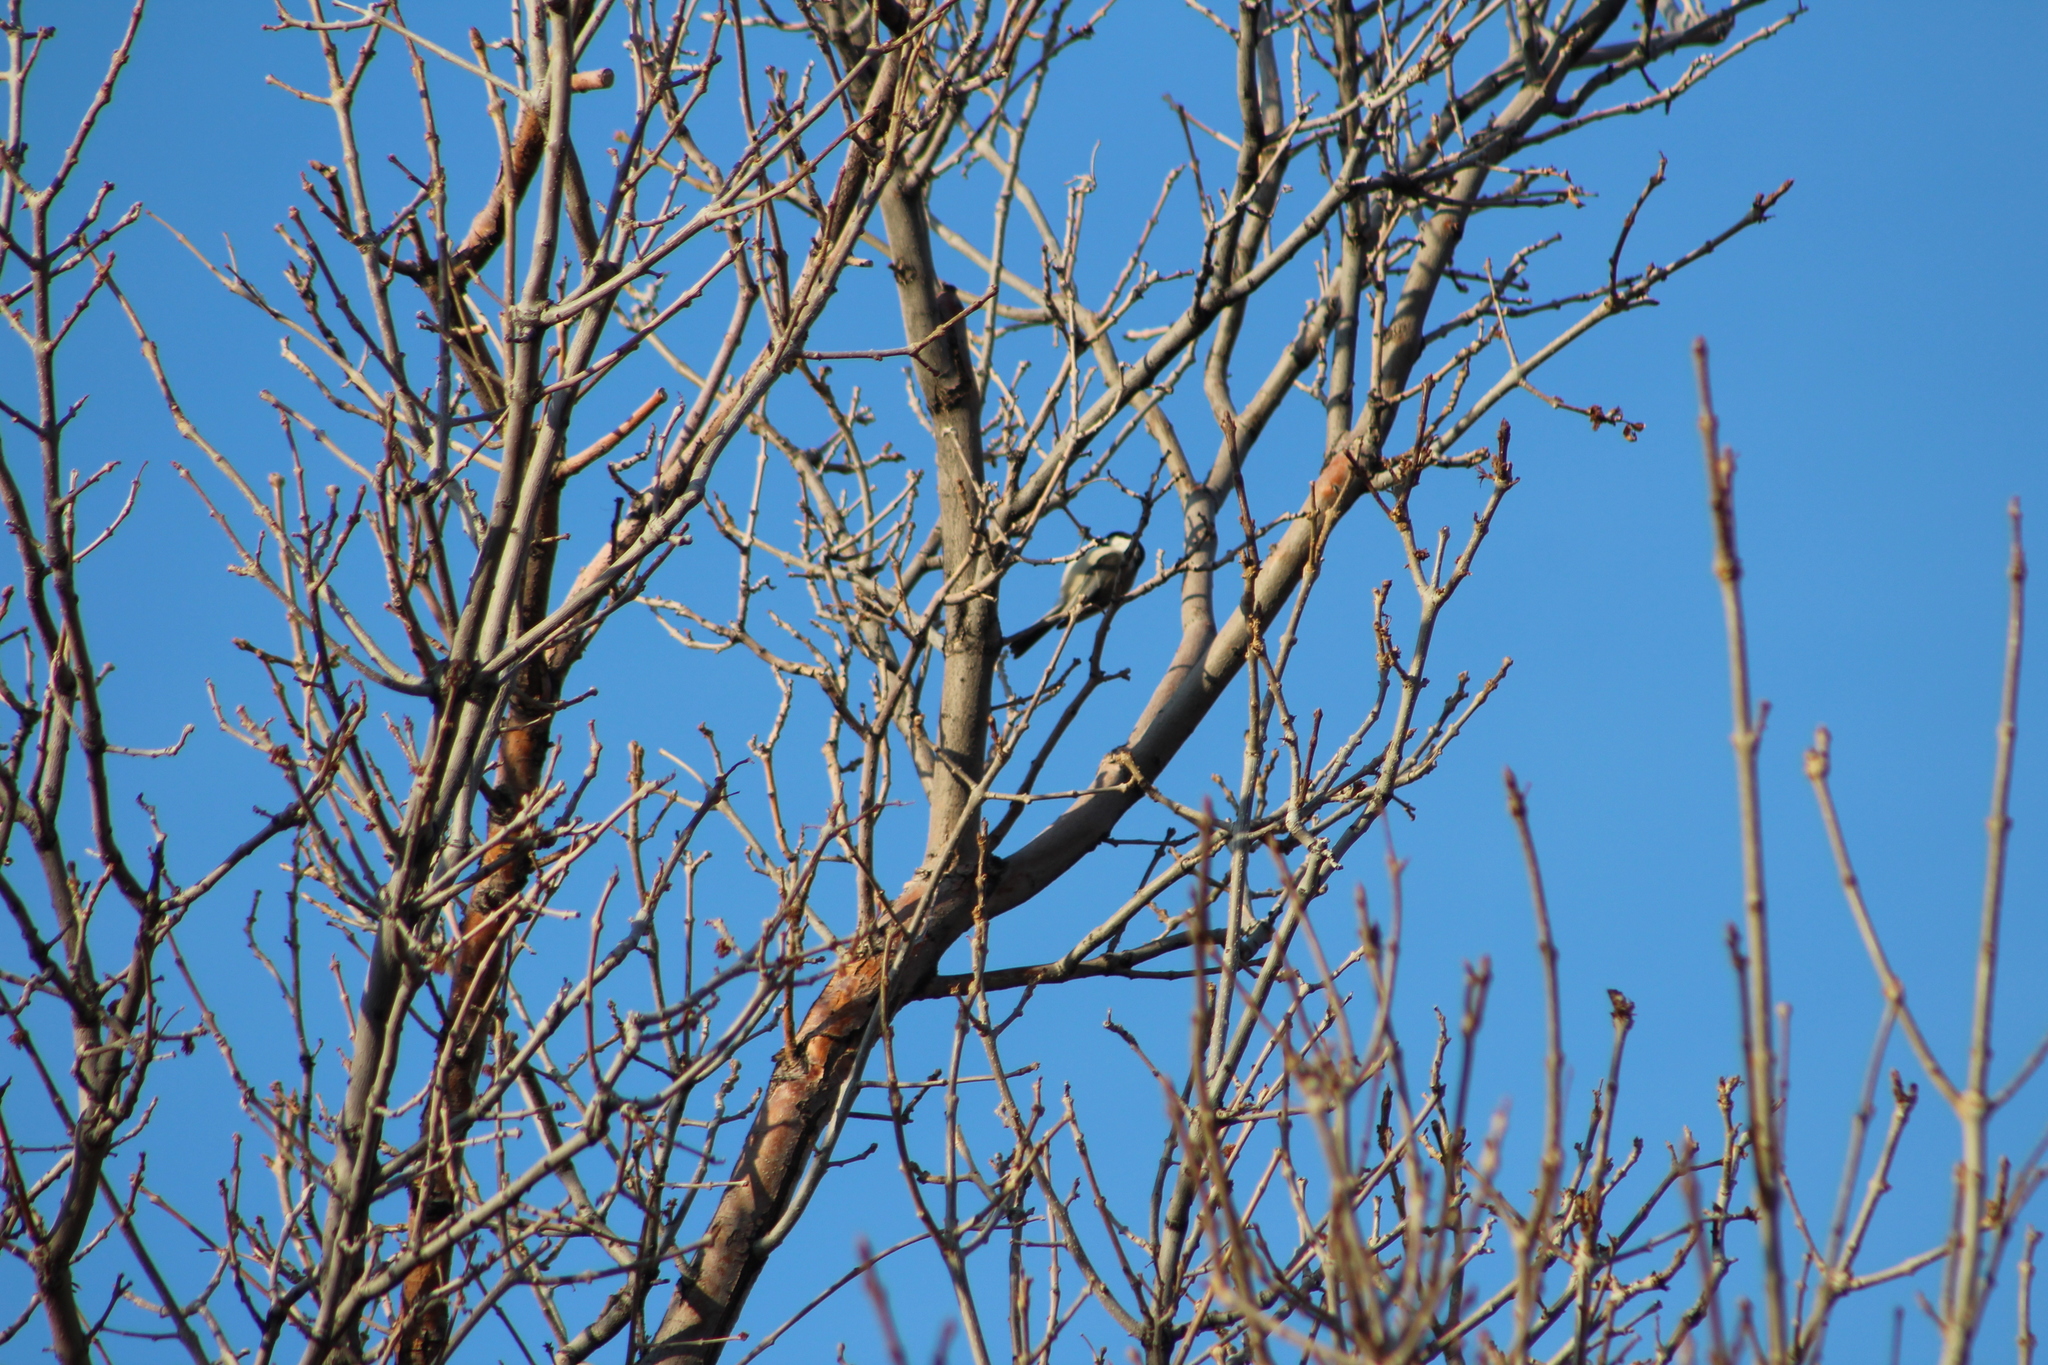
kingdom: Animalia
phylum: Chordata
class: Aves
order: Passeriformes
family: Paridae
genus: Poecile
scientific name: Poecile atricapillus
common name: Black-capped chickadee
